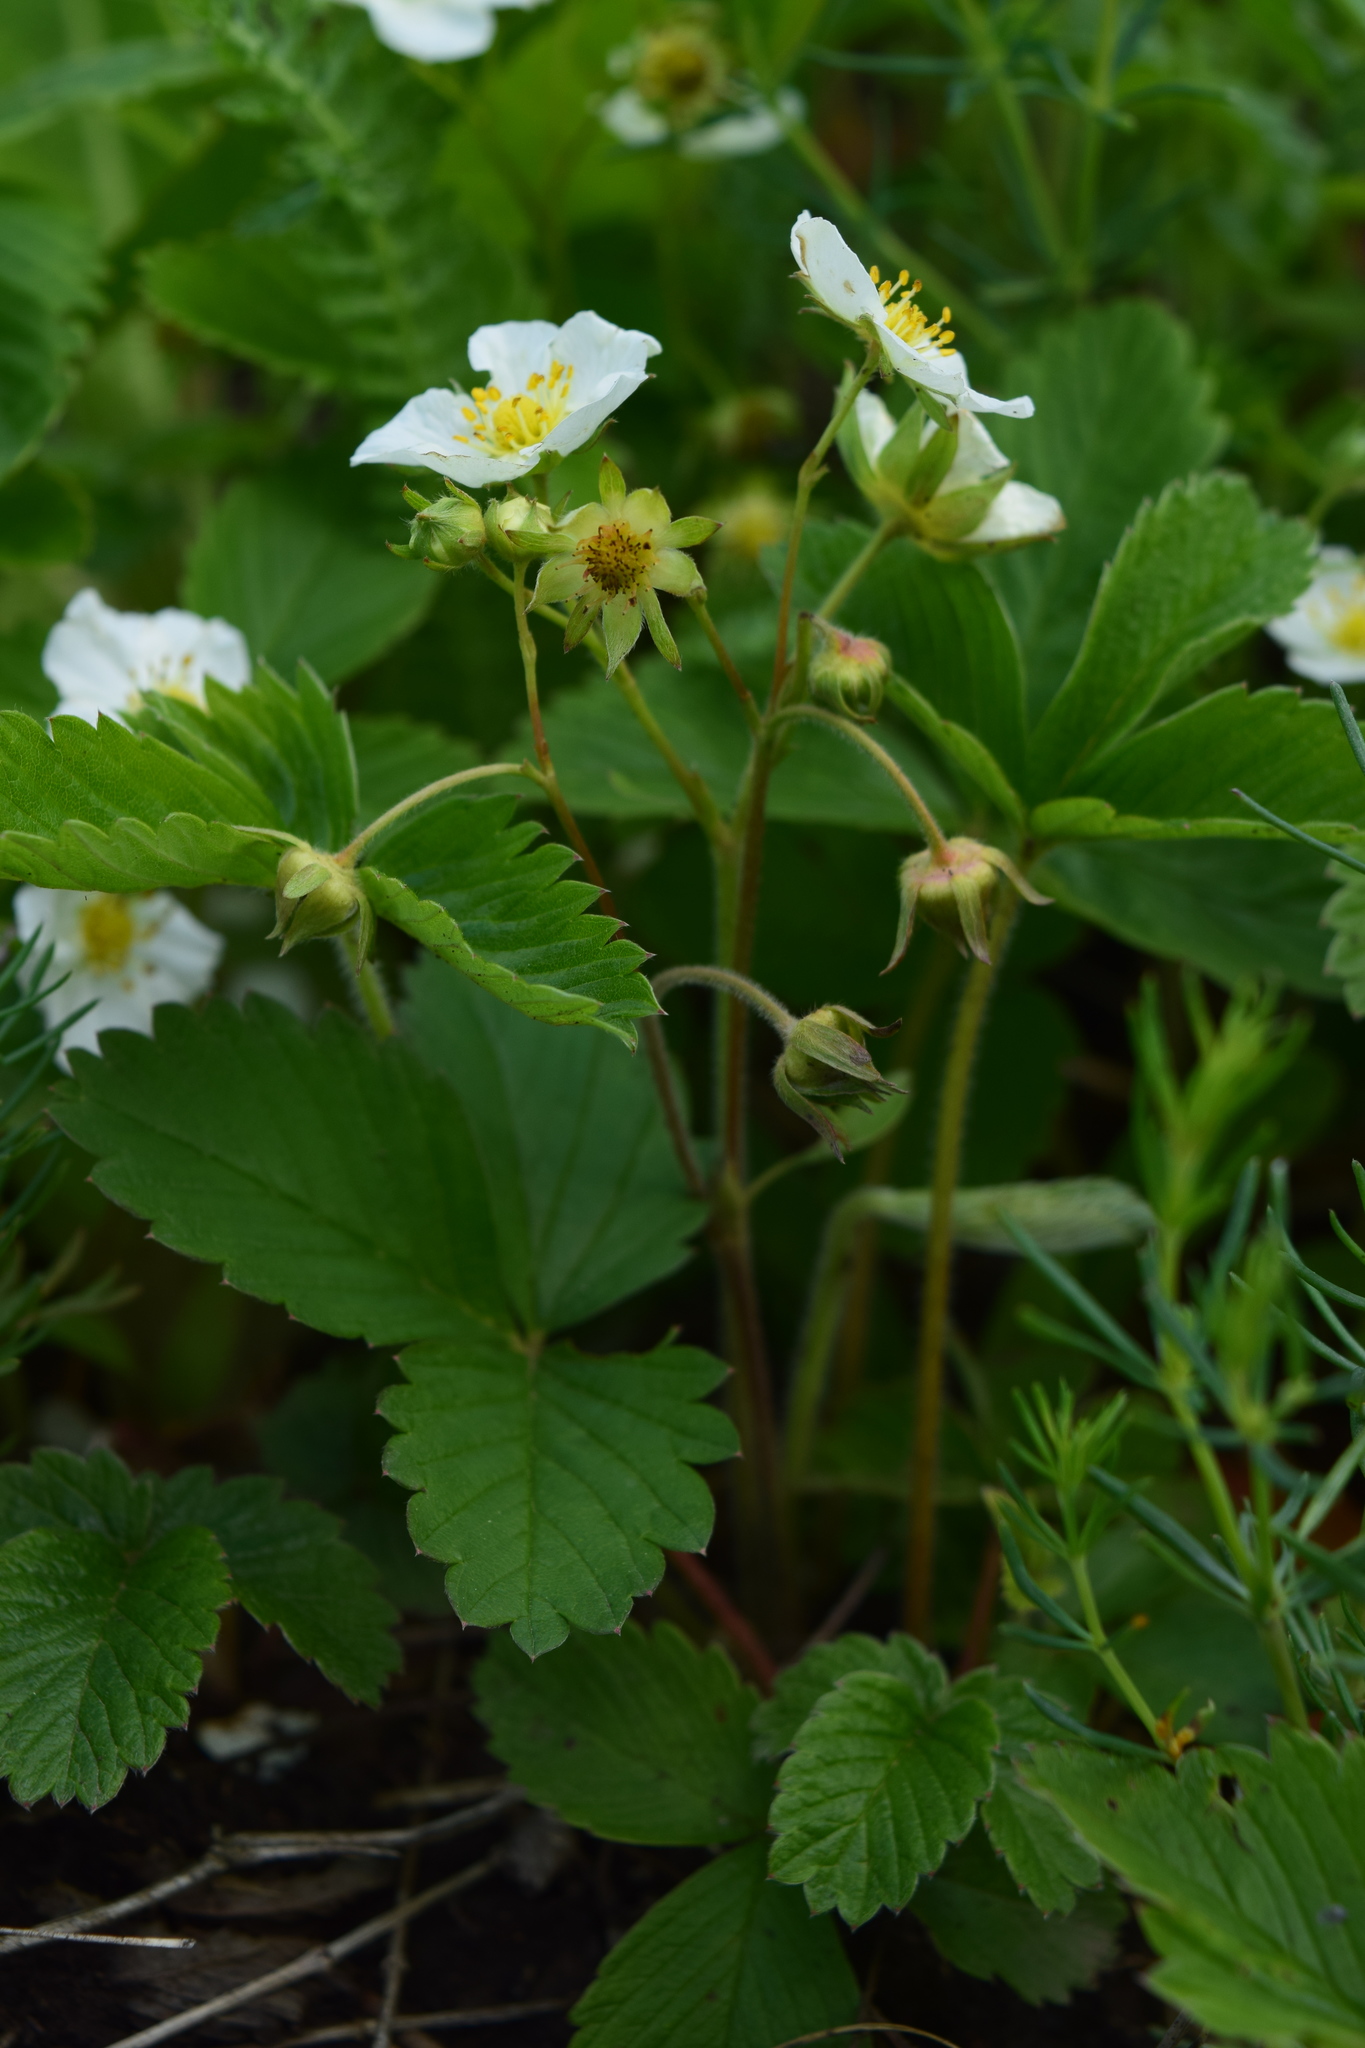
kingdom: Plantae
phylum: Tracheophyta
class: Magnoliopsida
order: Rosales
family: Rosaceae
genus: Fragaria
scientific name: Fragaria viridis
